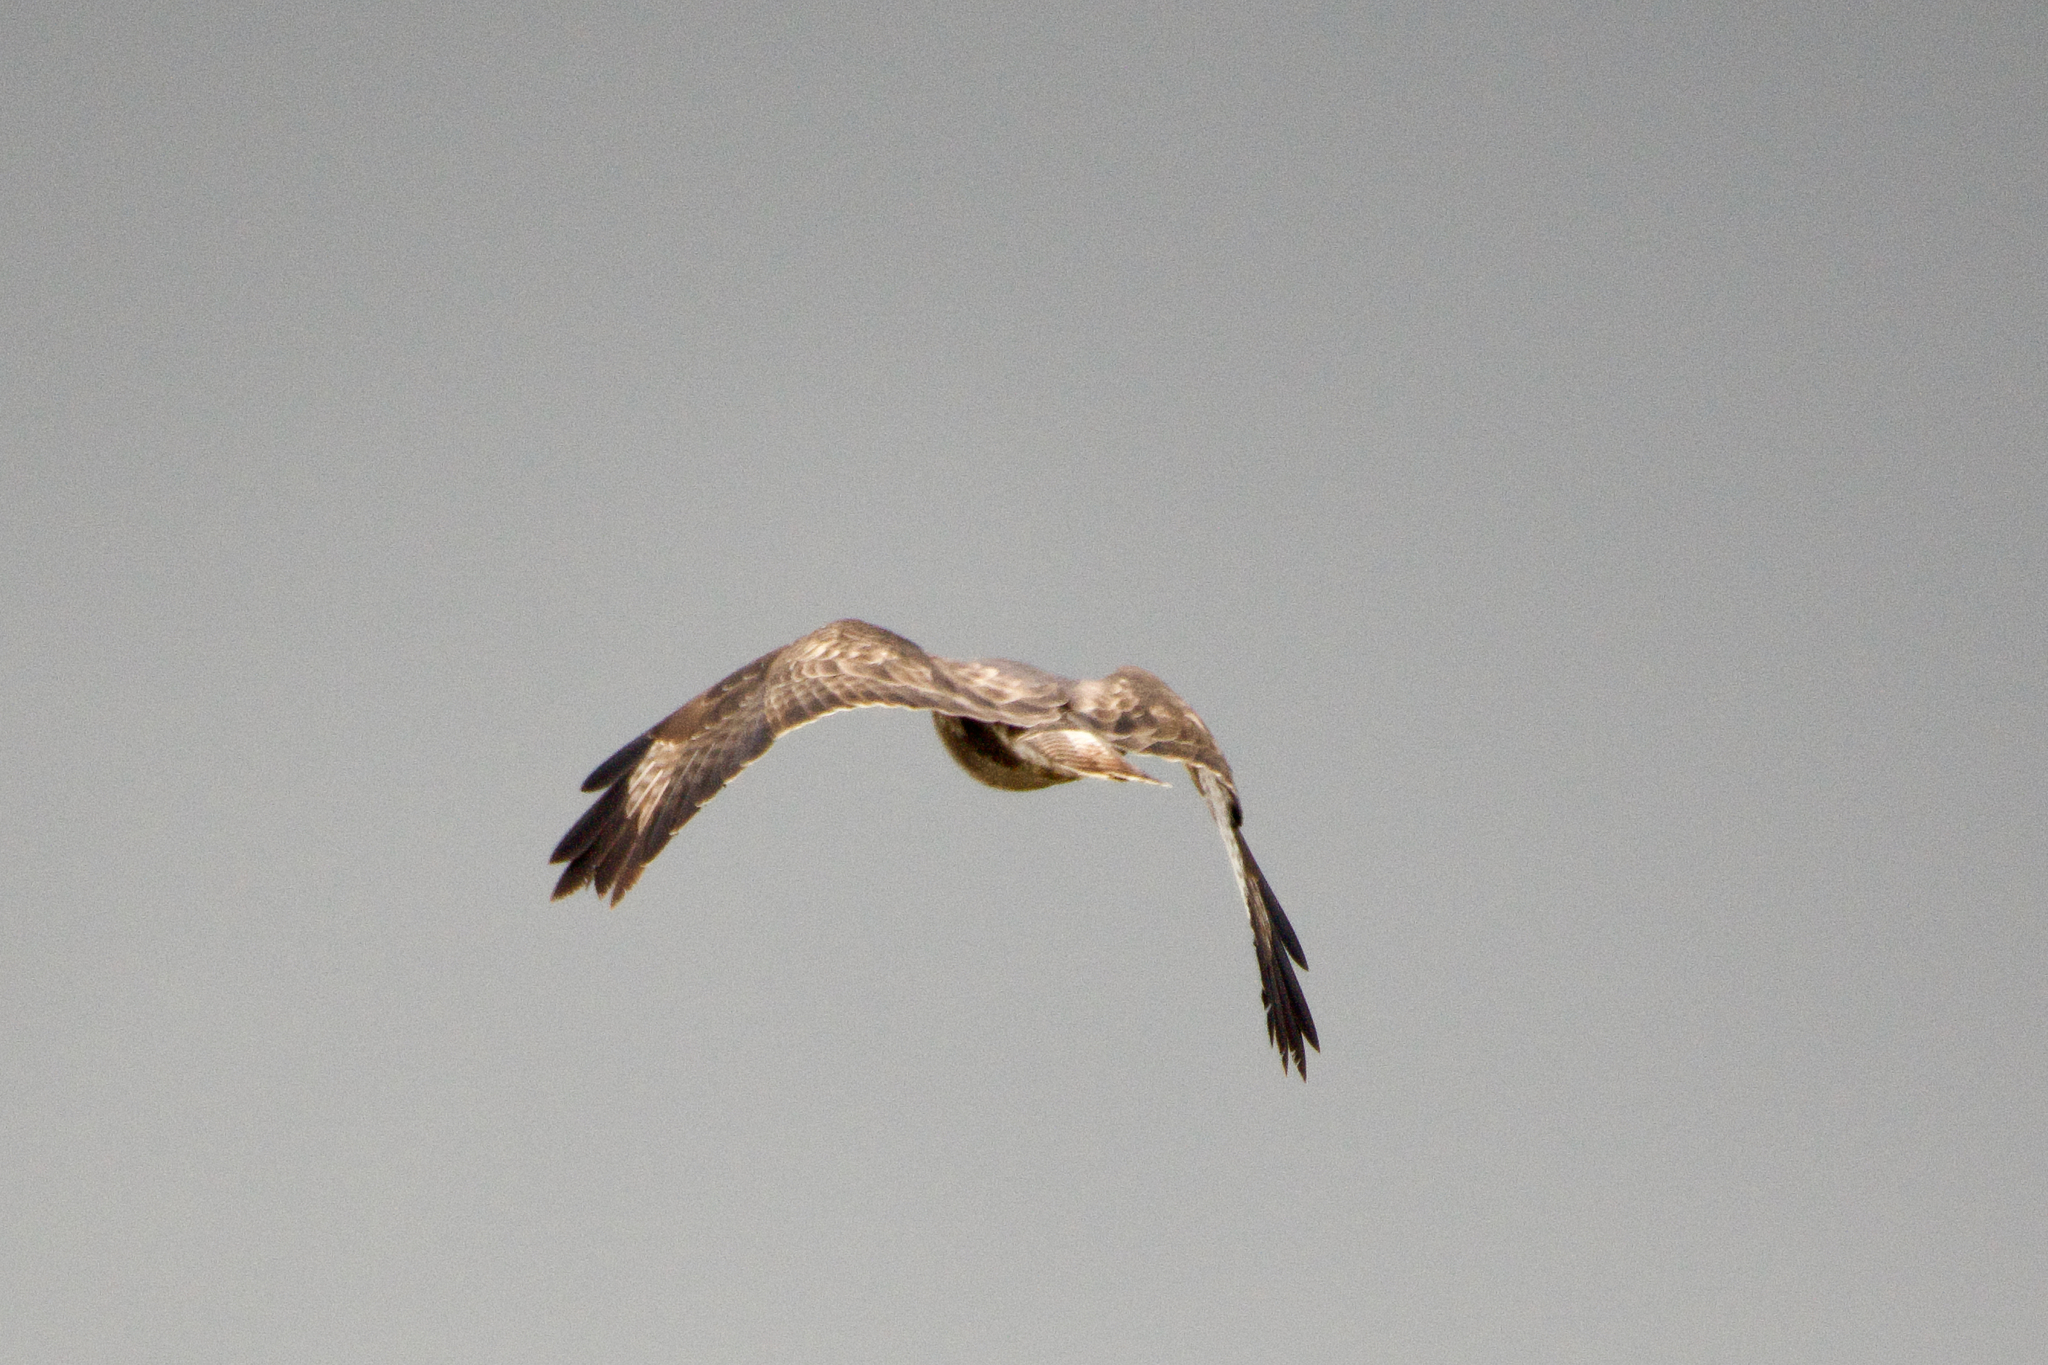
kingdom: Animalia
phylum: Chordata
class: Aves
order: Accipitriformes
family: Accipitridae
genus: Buteo
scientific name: Buteo buteo
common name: Common buzzard
